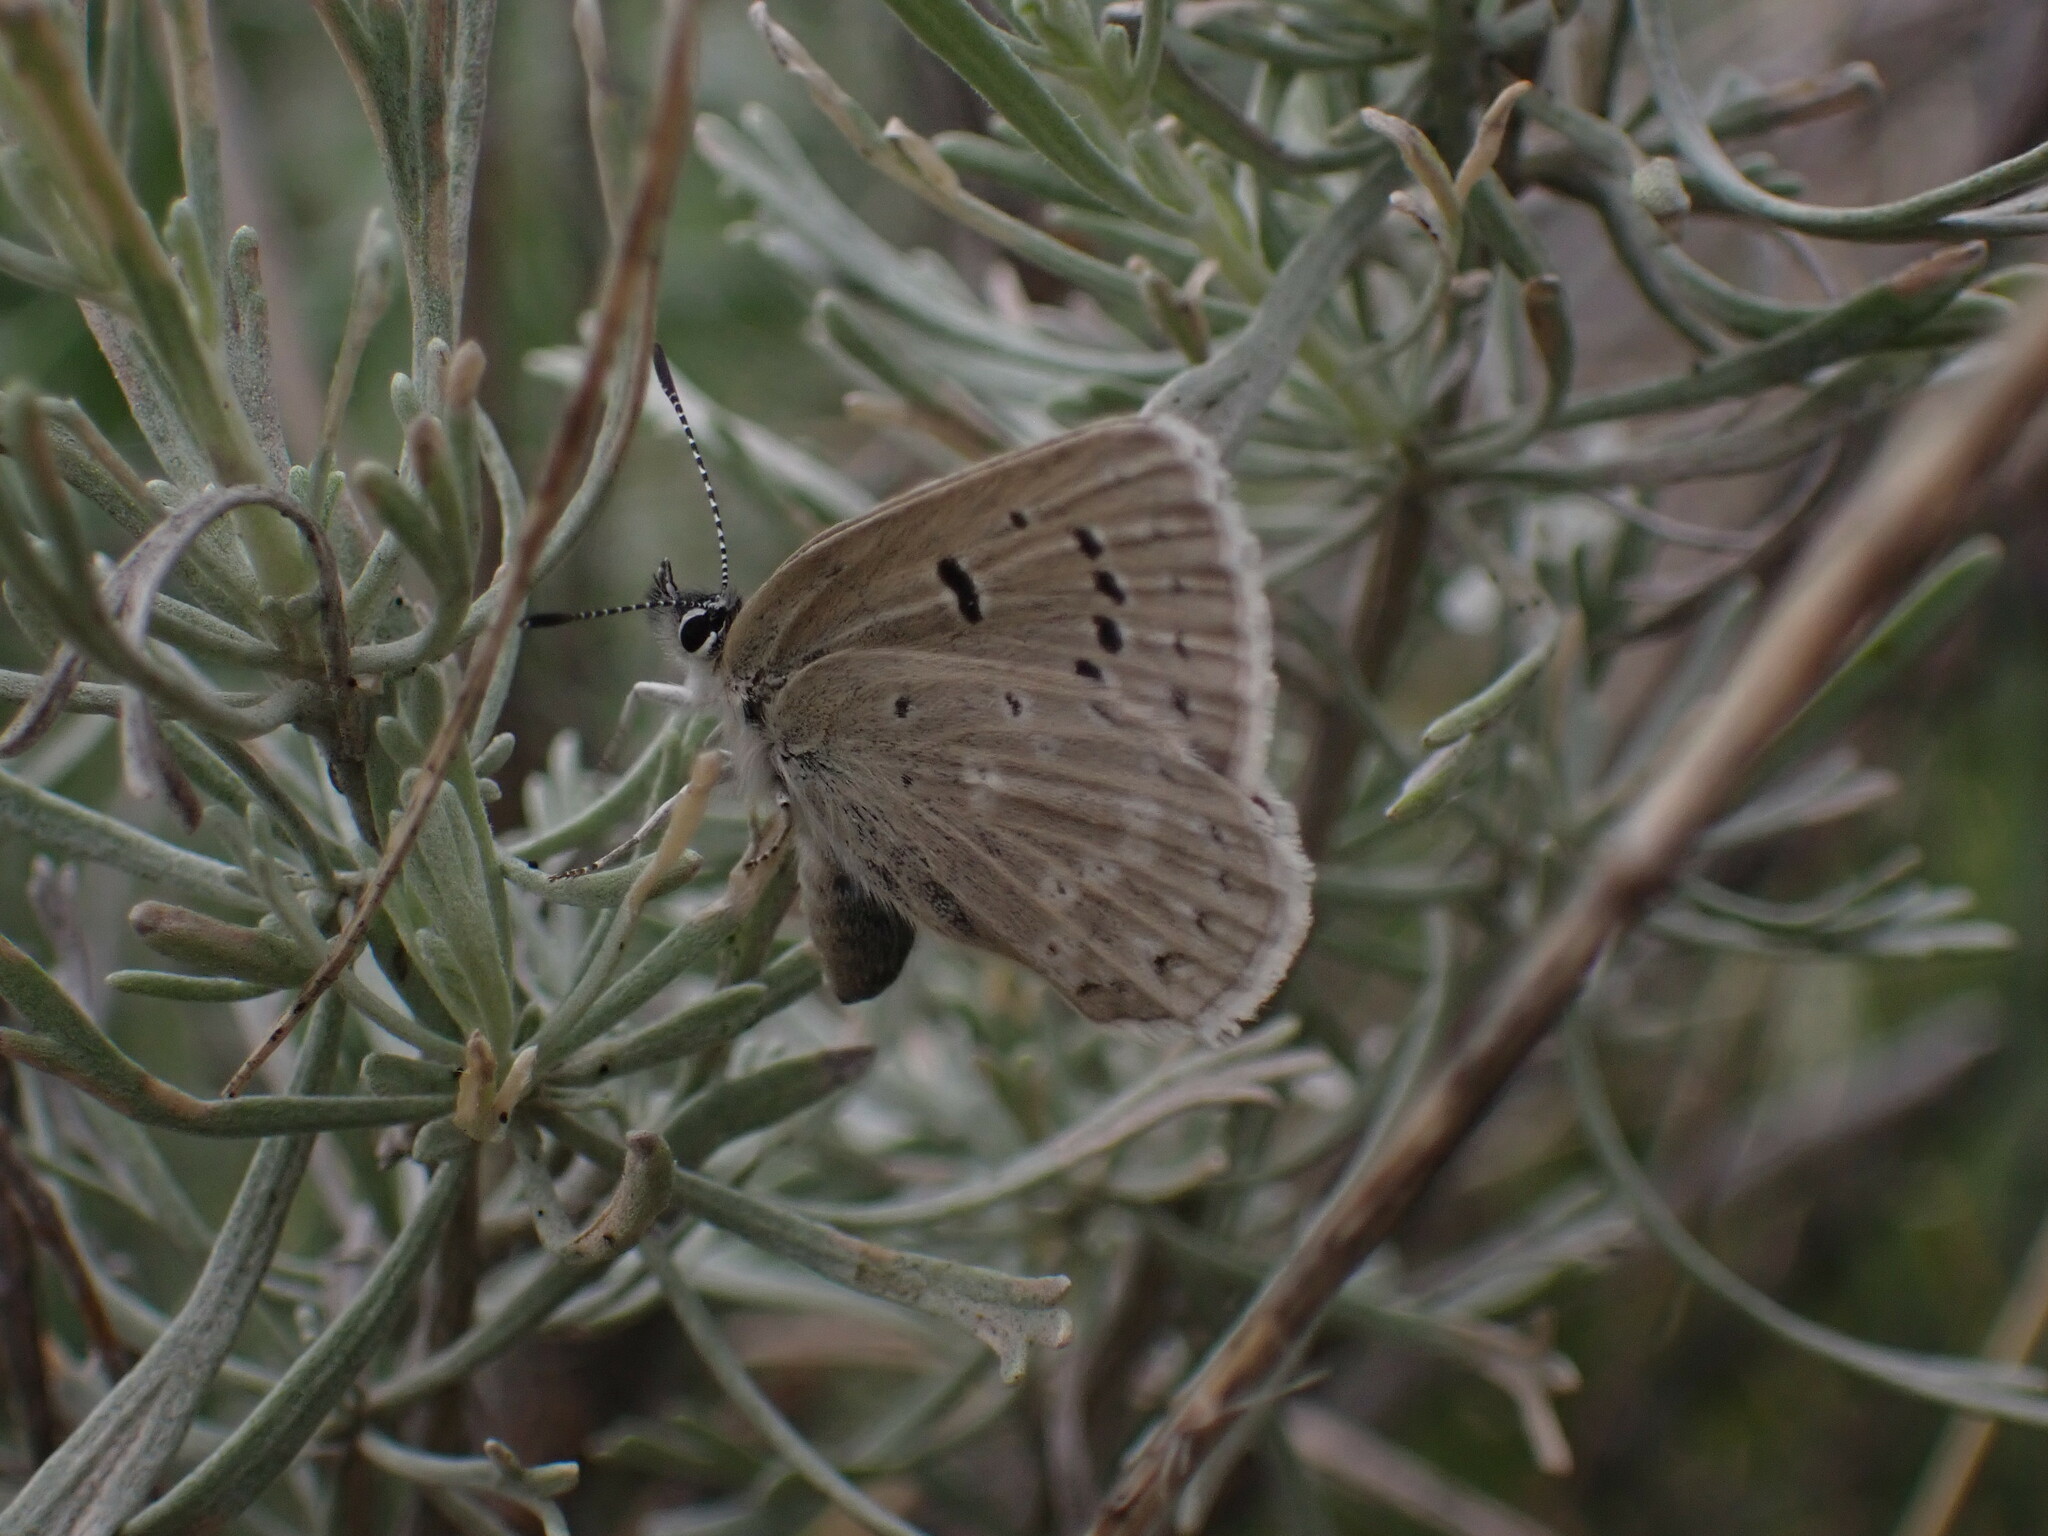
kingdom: Animalia
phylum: Arthropoda
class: Insecta
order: Lepidoptera
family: Lycaenidae
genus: Icaricia
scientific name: Icaricia icarioides
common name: Boisduval's blue
